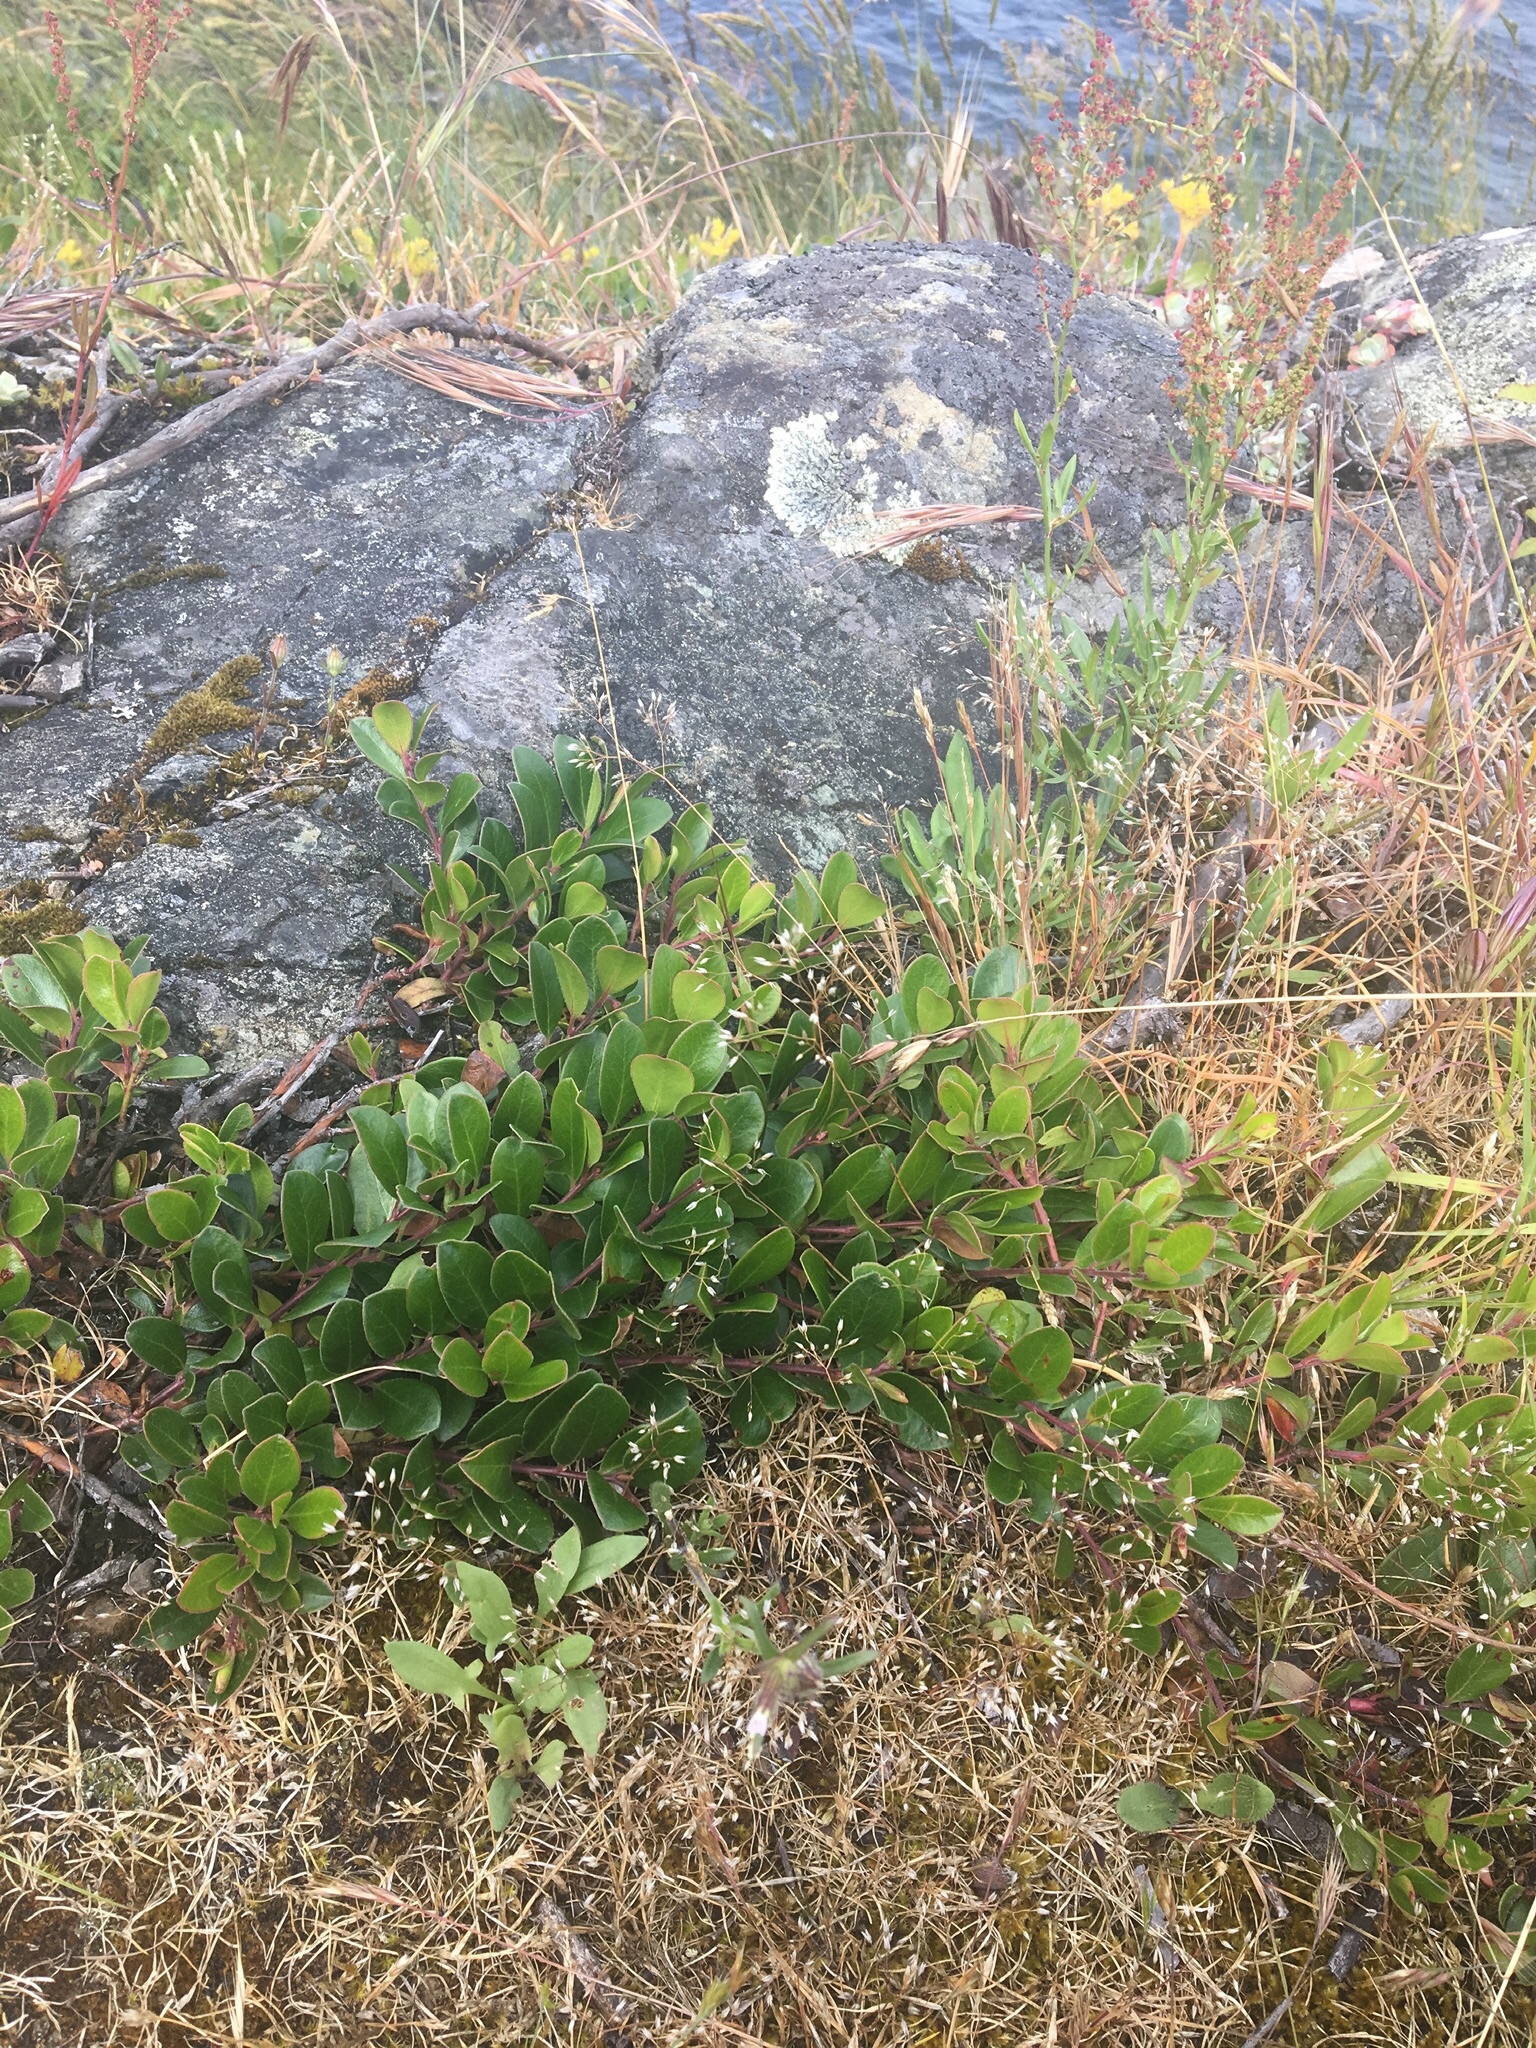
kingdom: Plantae
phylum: Tracheophyta
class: Magnoliopsida
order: Ericales
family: Ericaceae
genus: Arctostaphylos
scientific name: Arctostaphylos uva-ursi
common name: Bearberry
